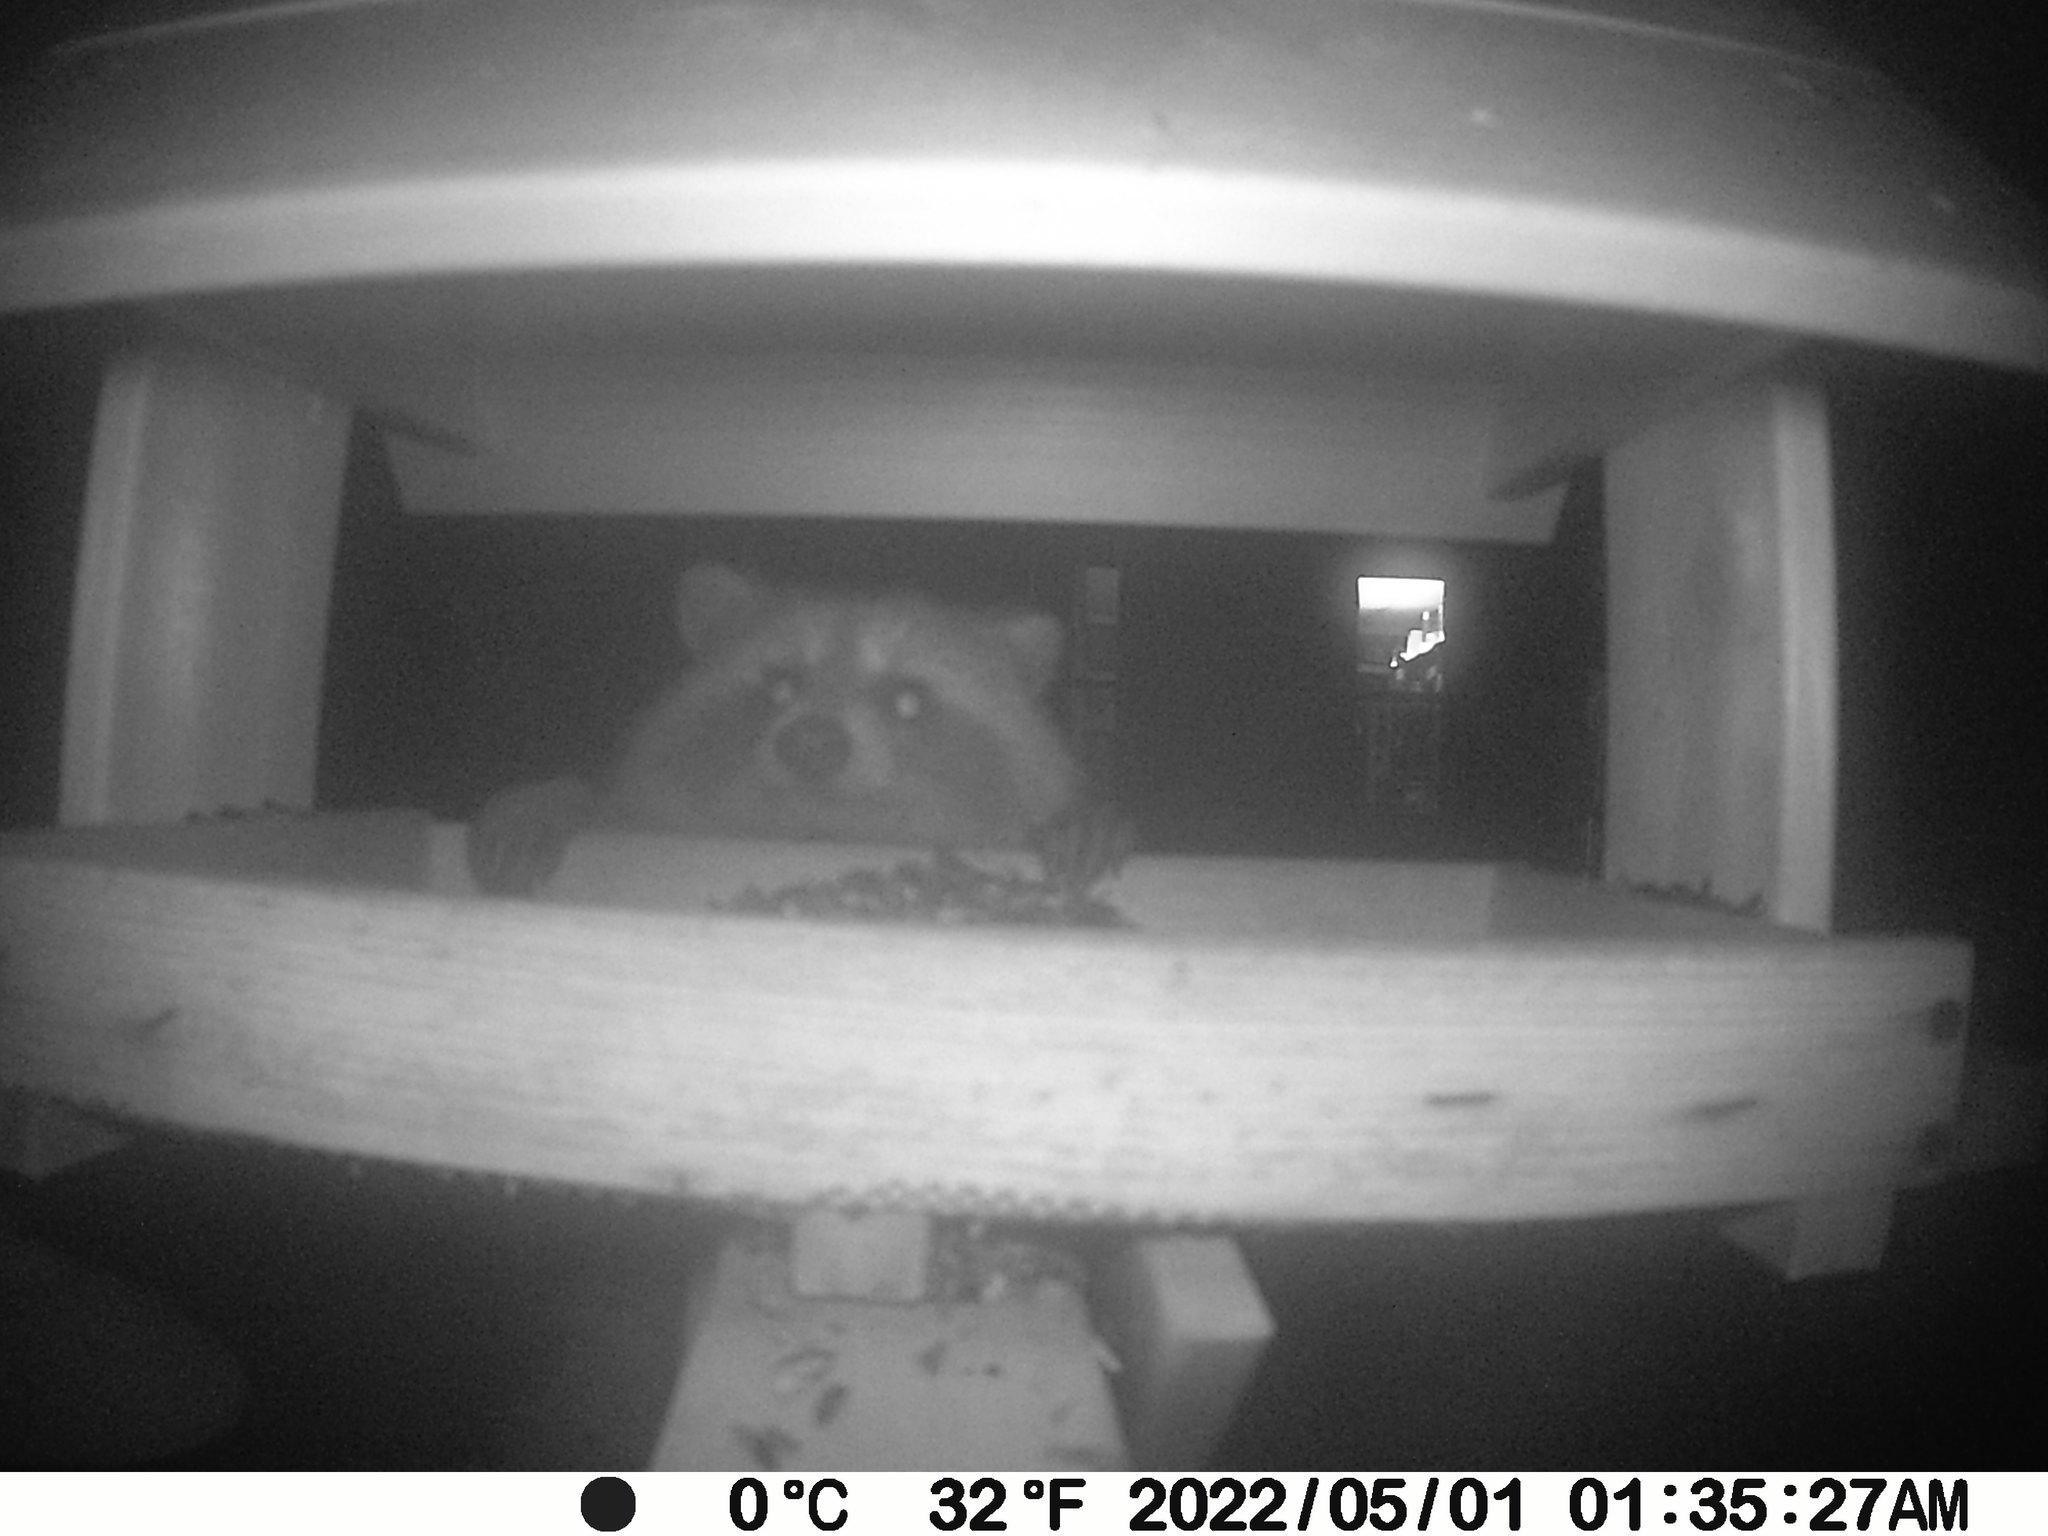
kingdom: Animalia
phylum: Chordata
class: Mammalia
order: Carnivora
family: Procyonidae
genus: Procyon
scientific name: Procyon lotor
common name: Raccoon
